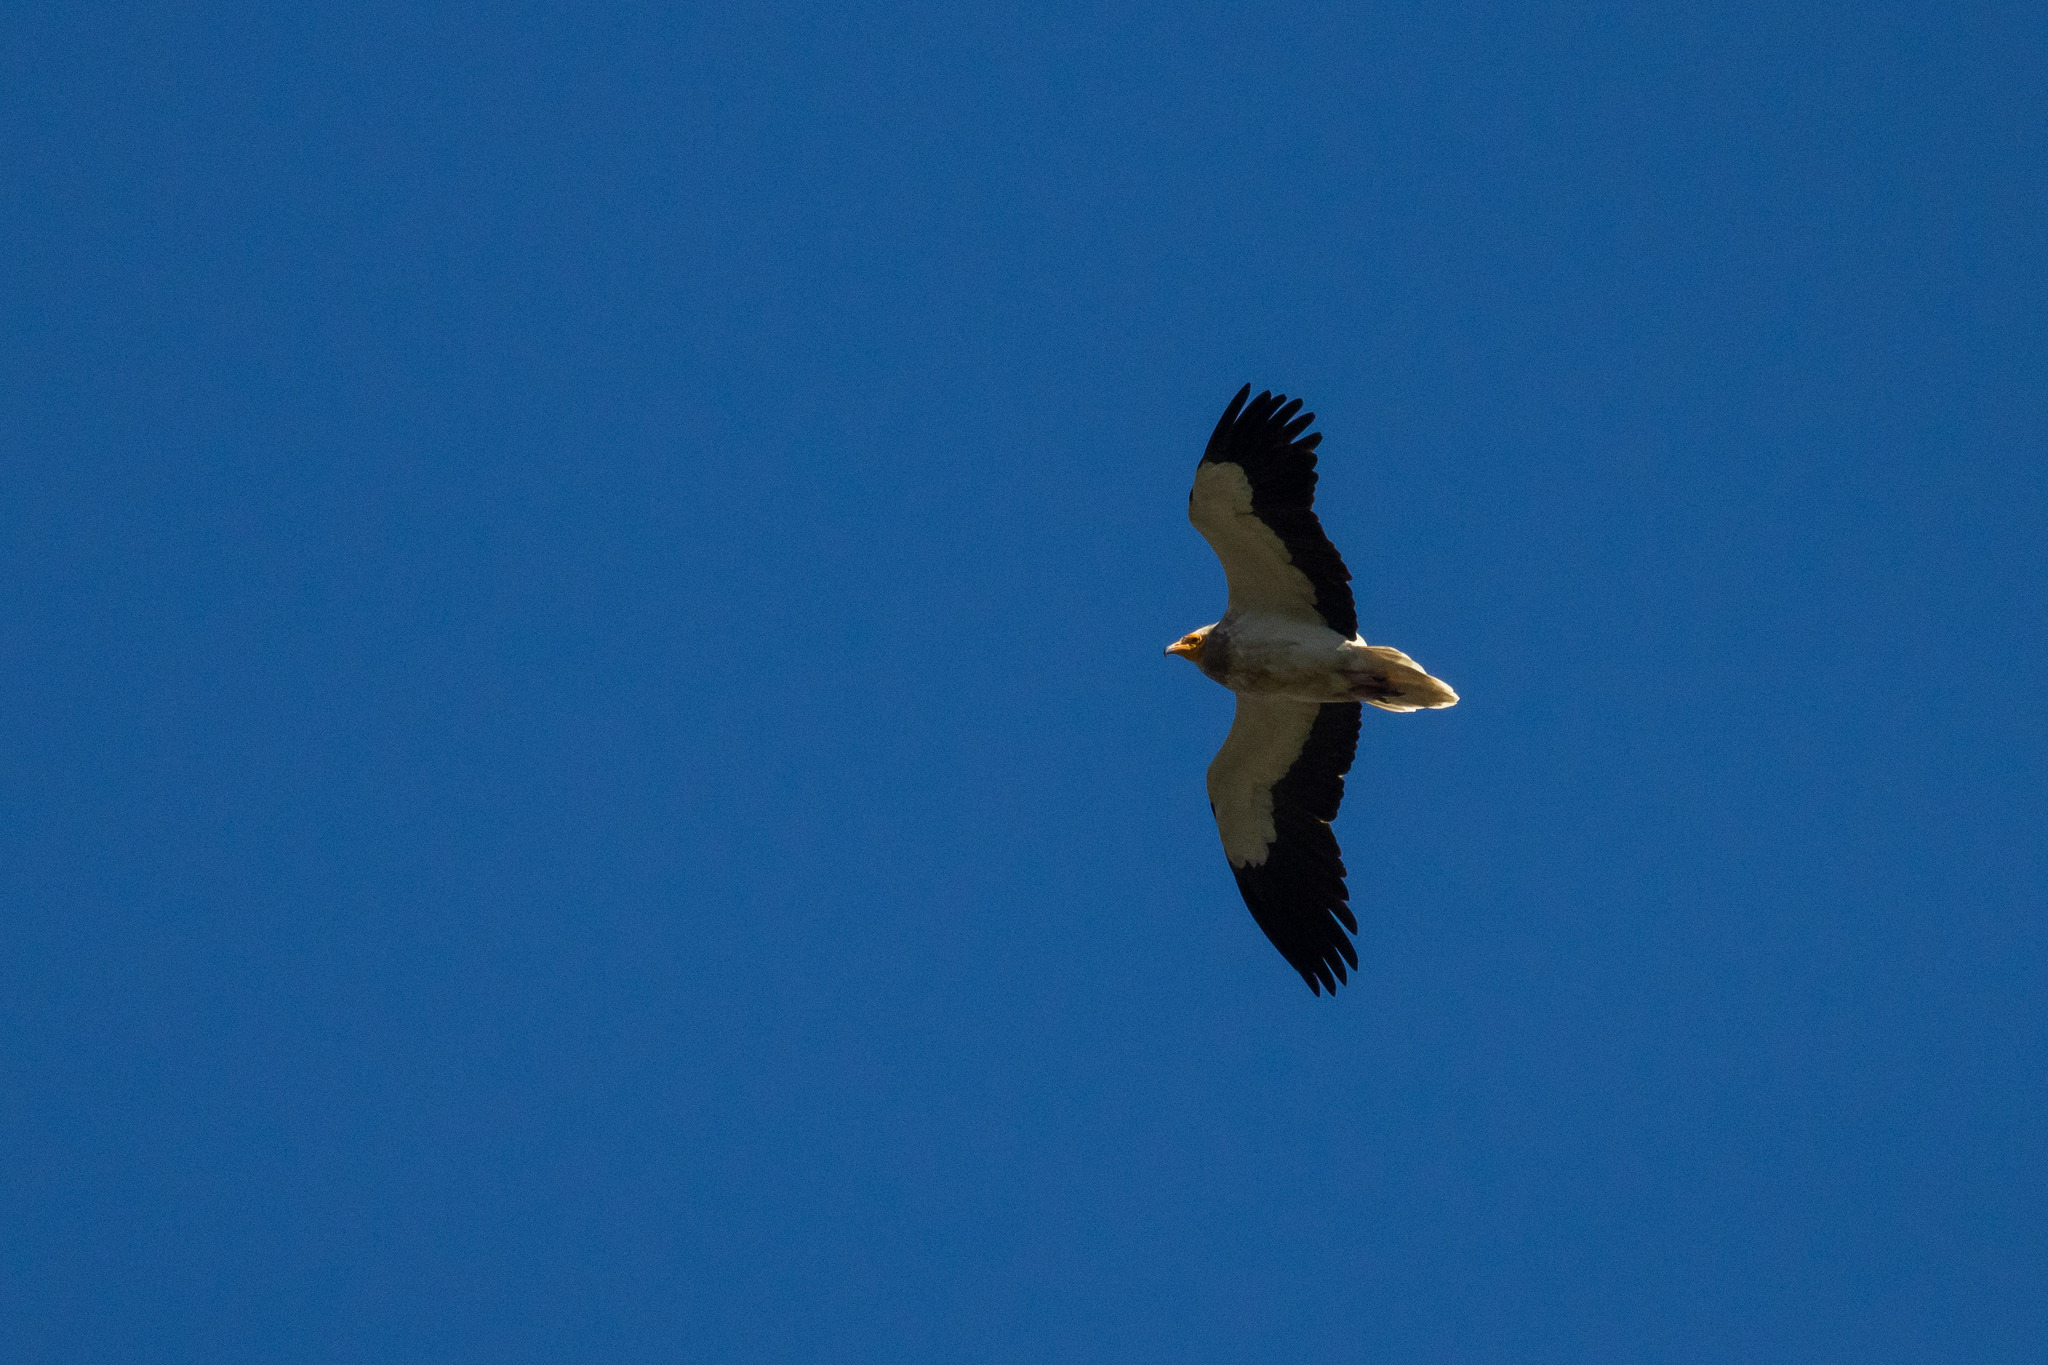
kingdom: Animalia
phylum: Chordata
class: Aves
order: Accipitriformes
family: Accipitridae
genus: Neophron
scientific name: Neophron percnopterus
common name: Egyptian vulture
